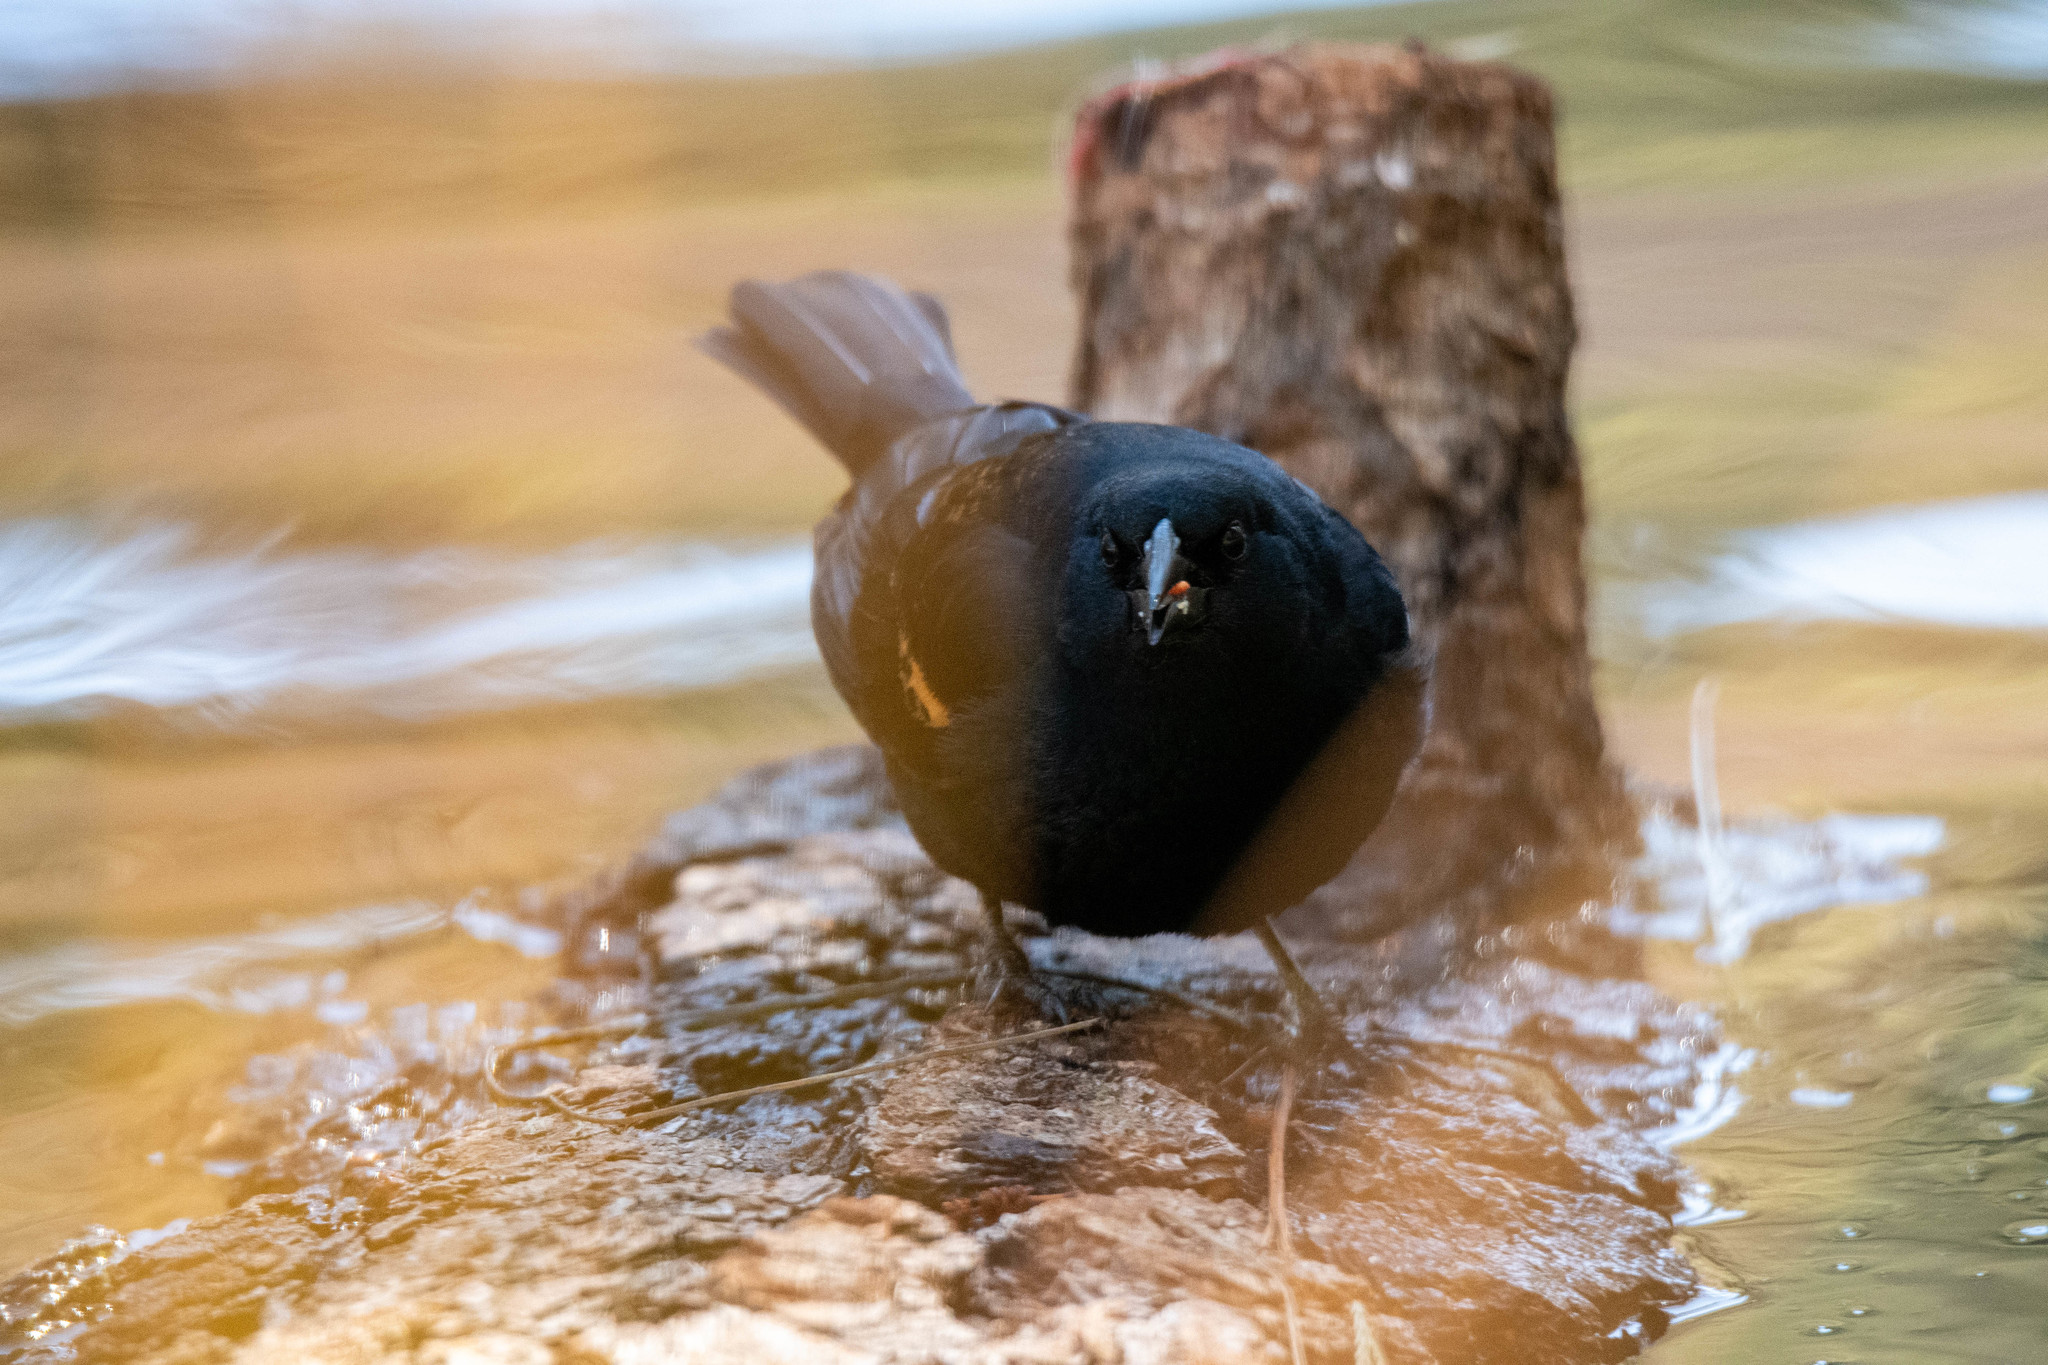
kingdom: Animalia
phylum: Chordata
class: Aves
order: Passeriformes
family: Icteridae
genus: Agelaius
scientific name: Agelaius phoeniceus
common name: Red-winged blackbird
